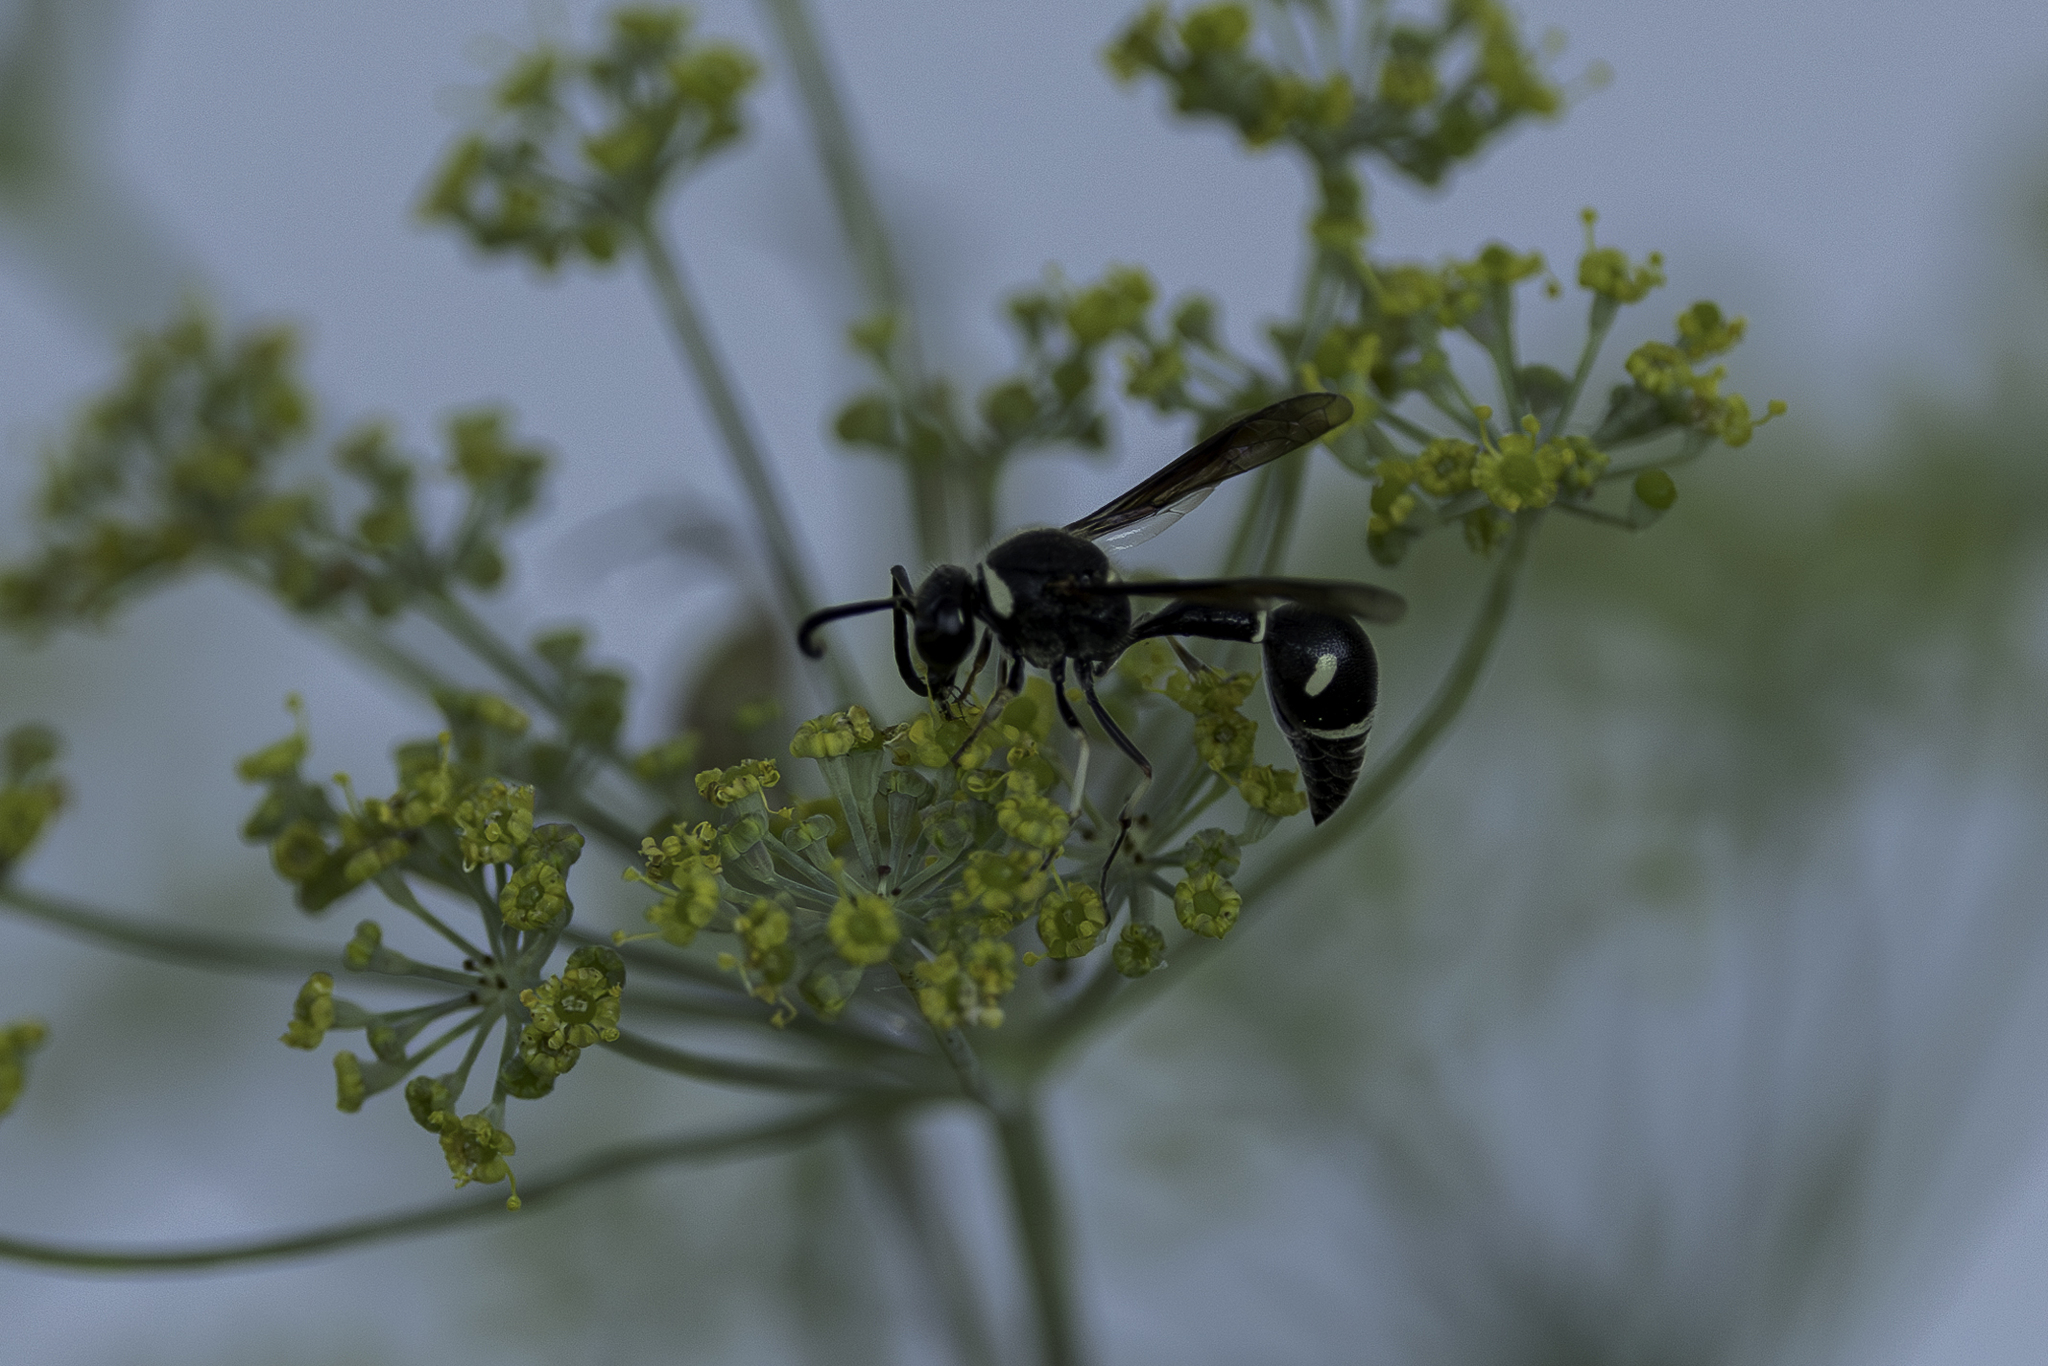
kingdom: Animalia
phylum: Arthropoda
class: Insecta
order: Hymenoptera
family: Vespidae
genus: Eumenes
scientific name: Eumenes fraternus
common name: Fraternal potter wasp
